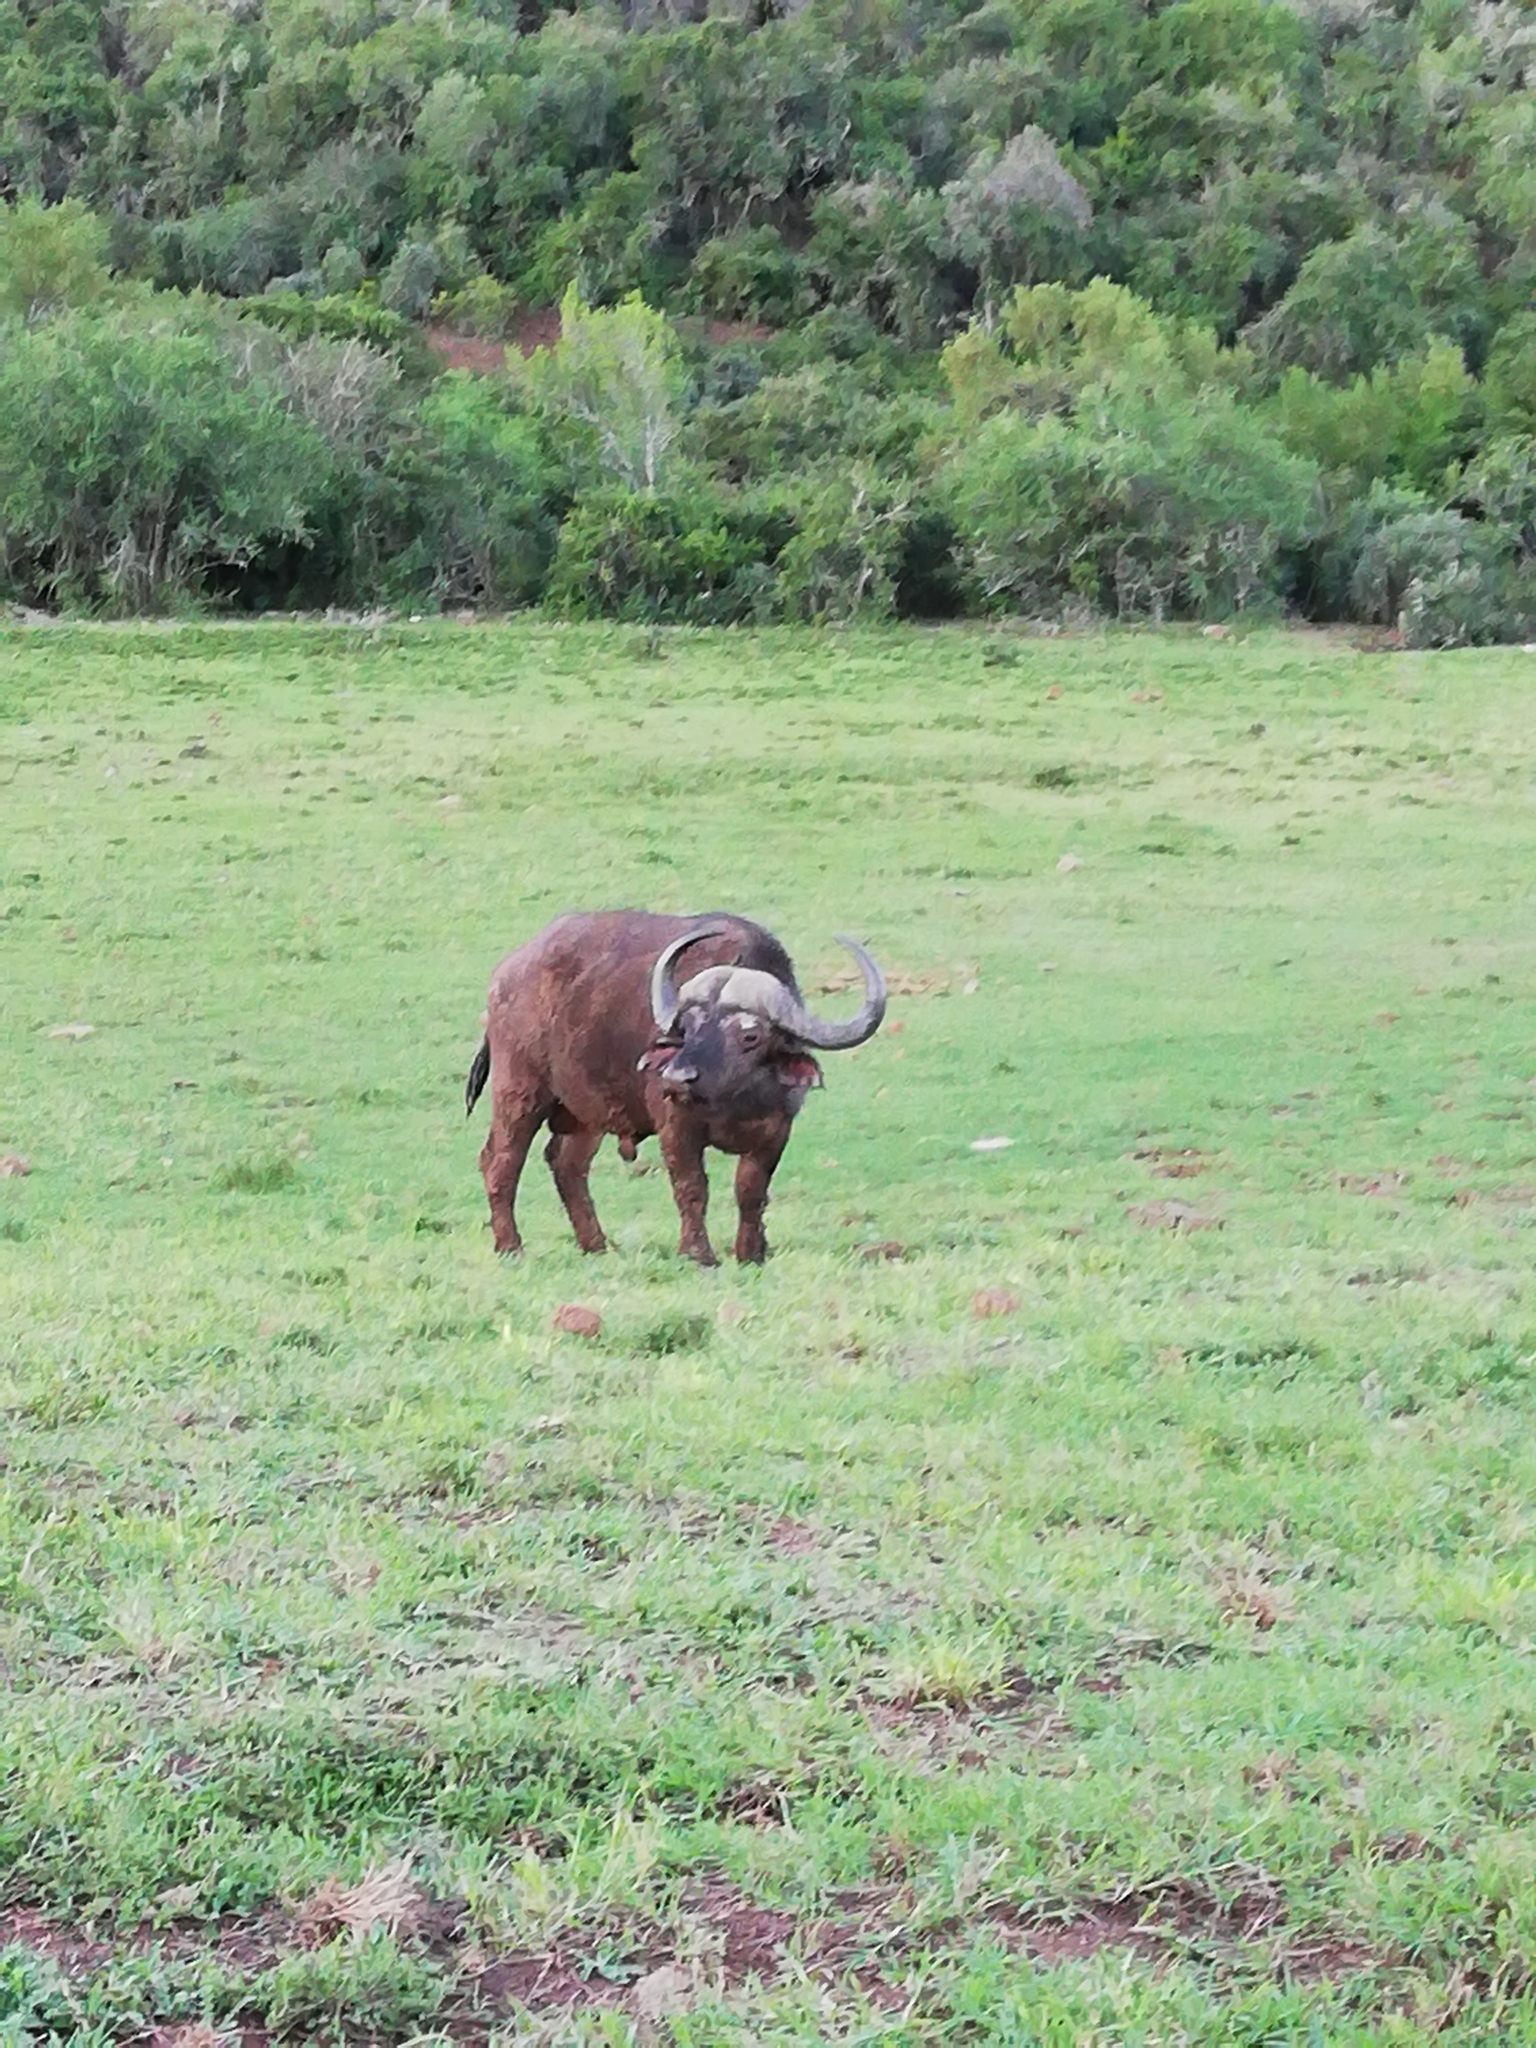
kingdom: Animalia
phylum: Chordata
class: Mammalia
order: Artiodactyla
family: Bovidae
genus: Syncerus
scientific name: Syncerus caffer
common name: African buffalo
